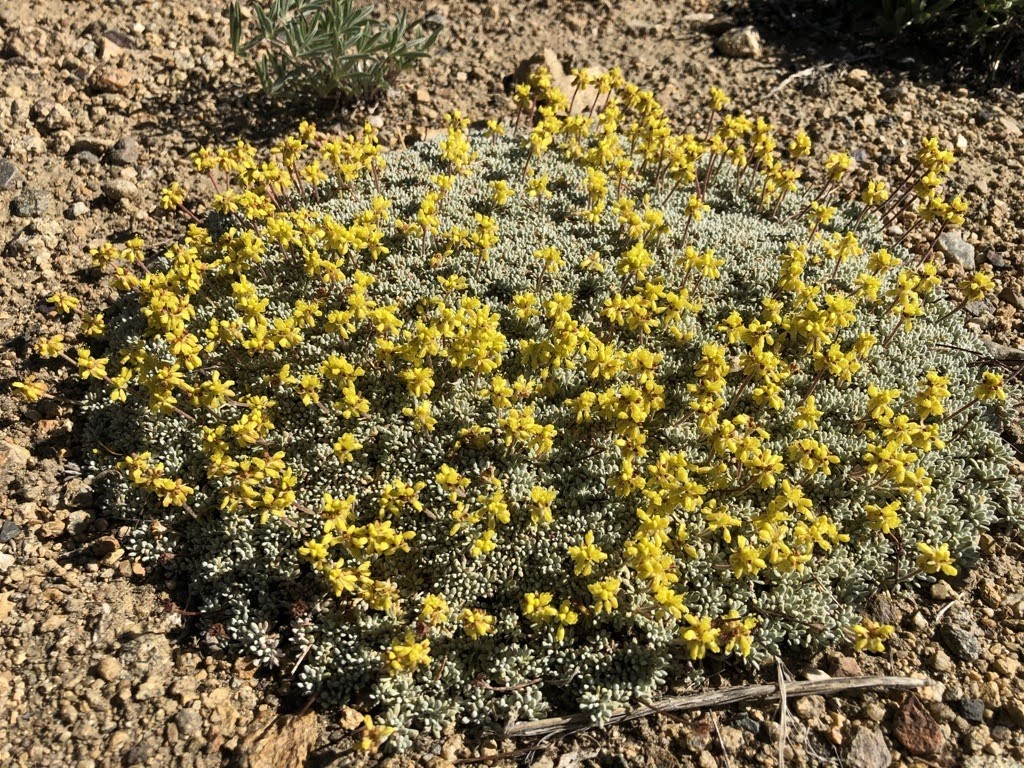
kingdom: Plantae
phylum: Tracheophyta
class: Magnoliopsida
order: Caryophyllales
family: Polygonaceae
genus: Eriogonum
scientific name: Eriogonum caespitosum
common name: Matted wild buckwheat
